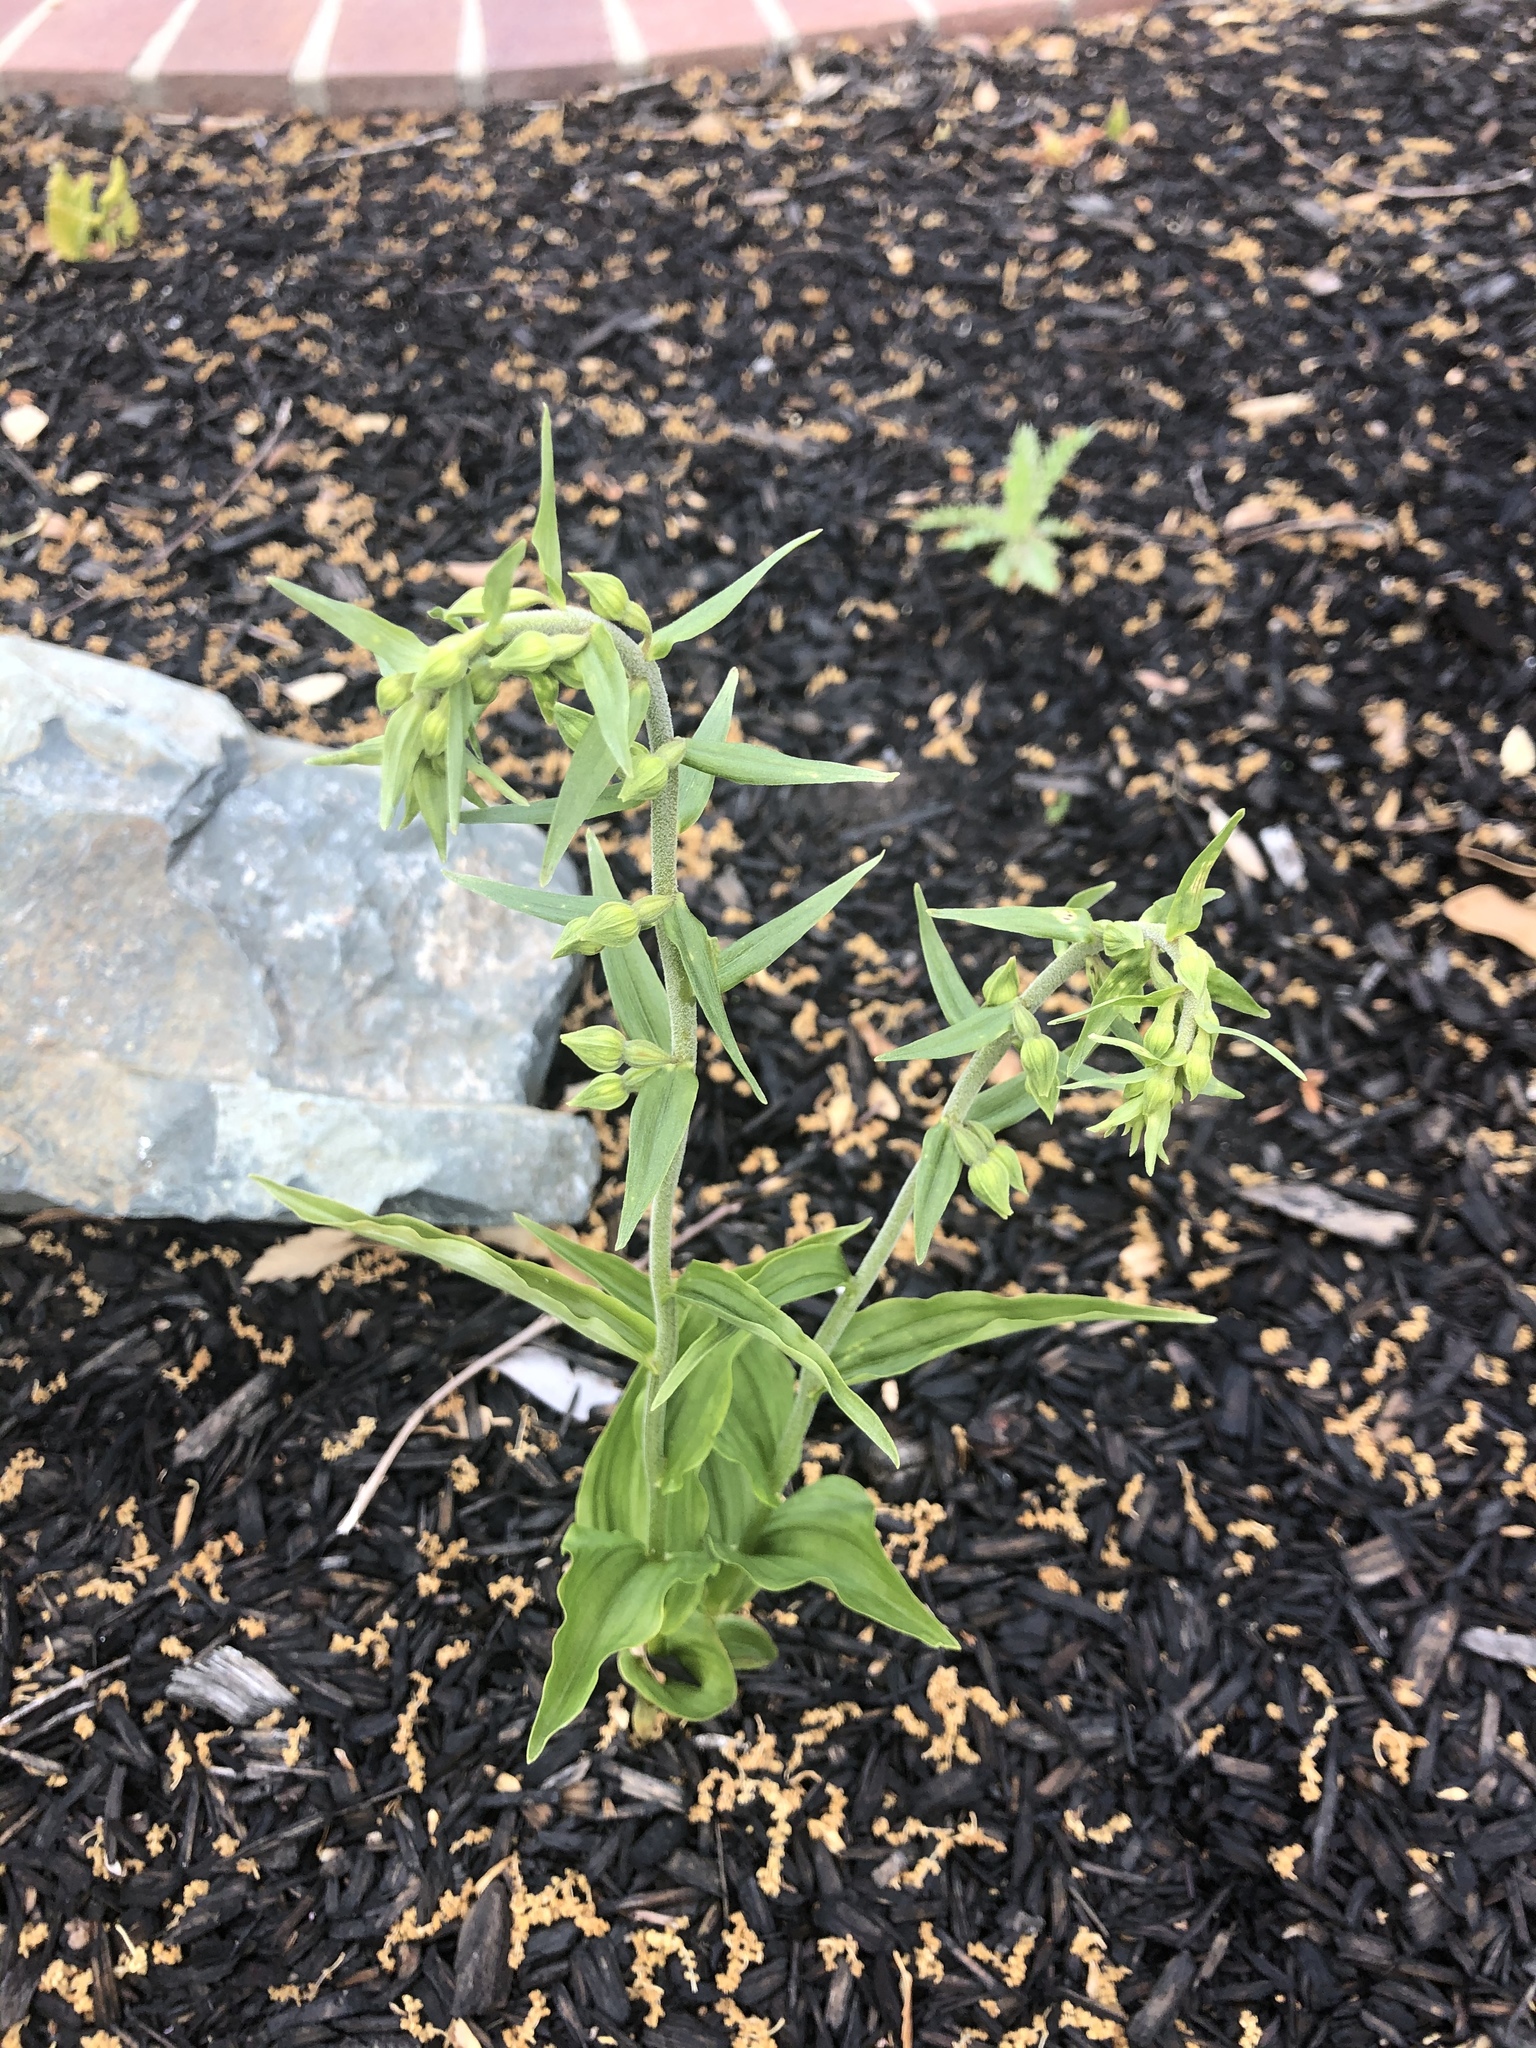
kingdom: Plantae
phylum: Tracheophyta
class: Liliopsida
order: Asparagales
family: Orchidaceae
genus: Epipactis
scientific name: Epipactis helleborine
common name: Broad-leaved helleborine
